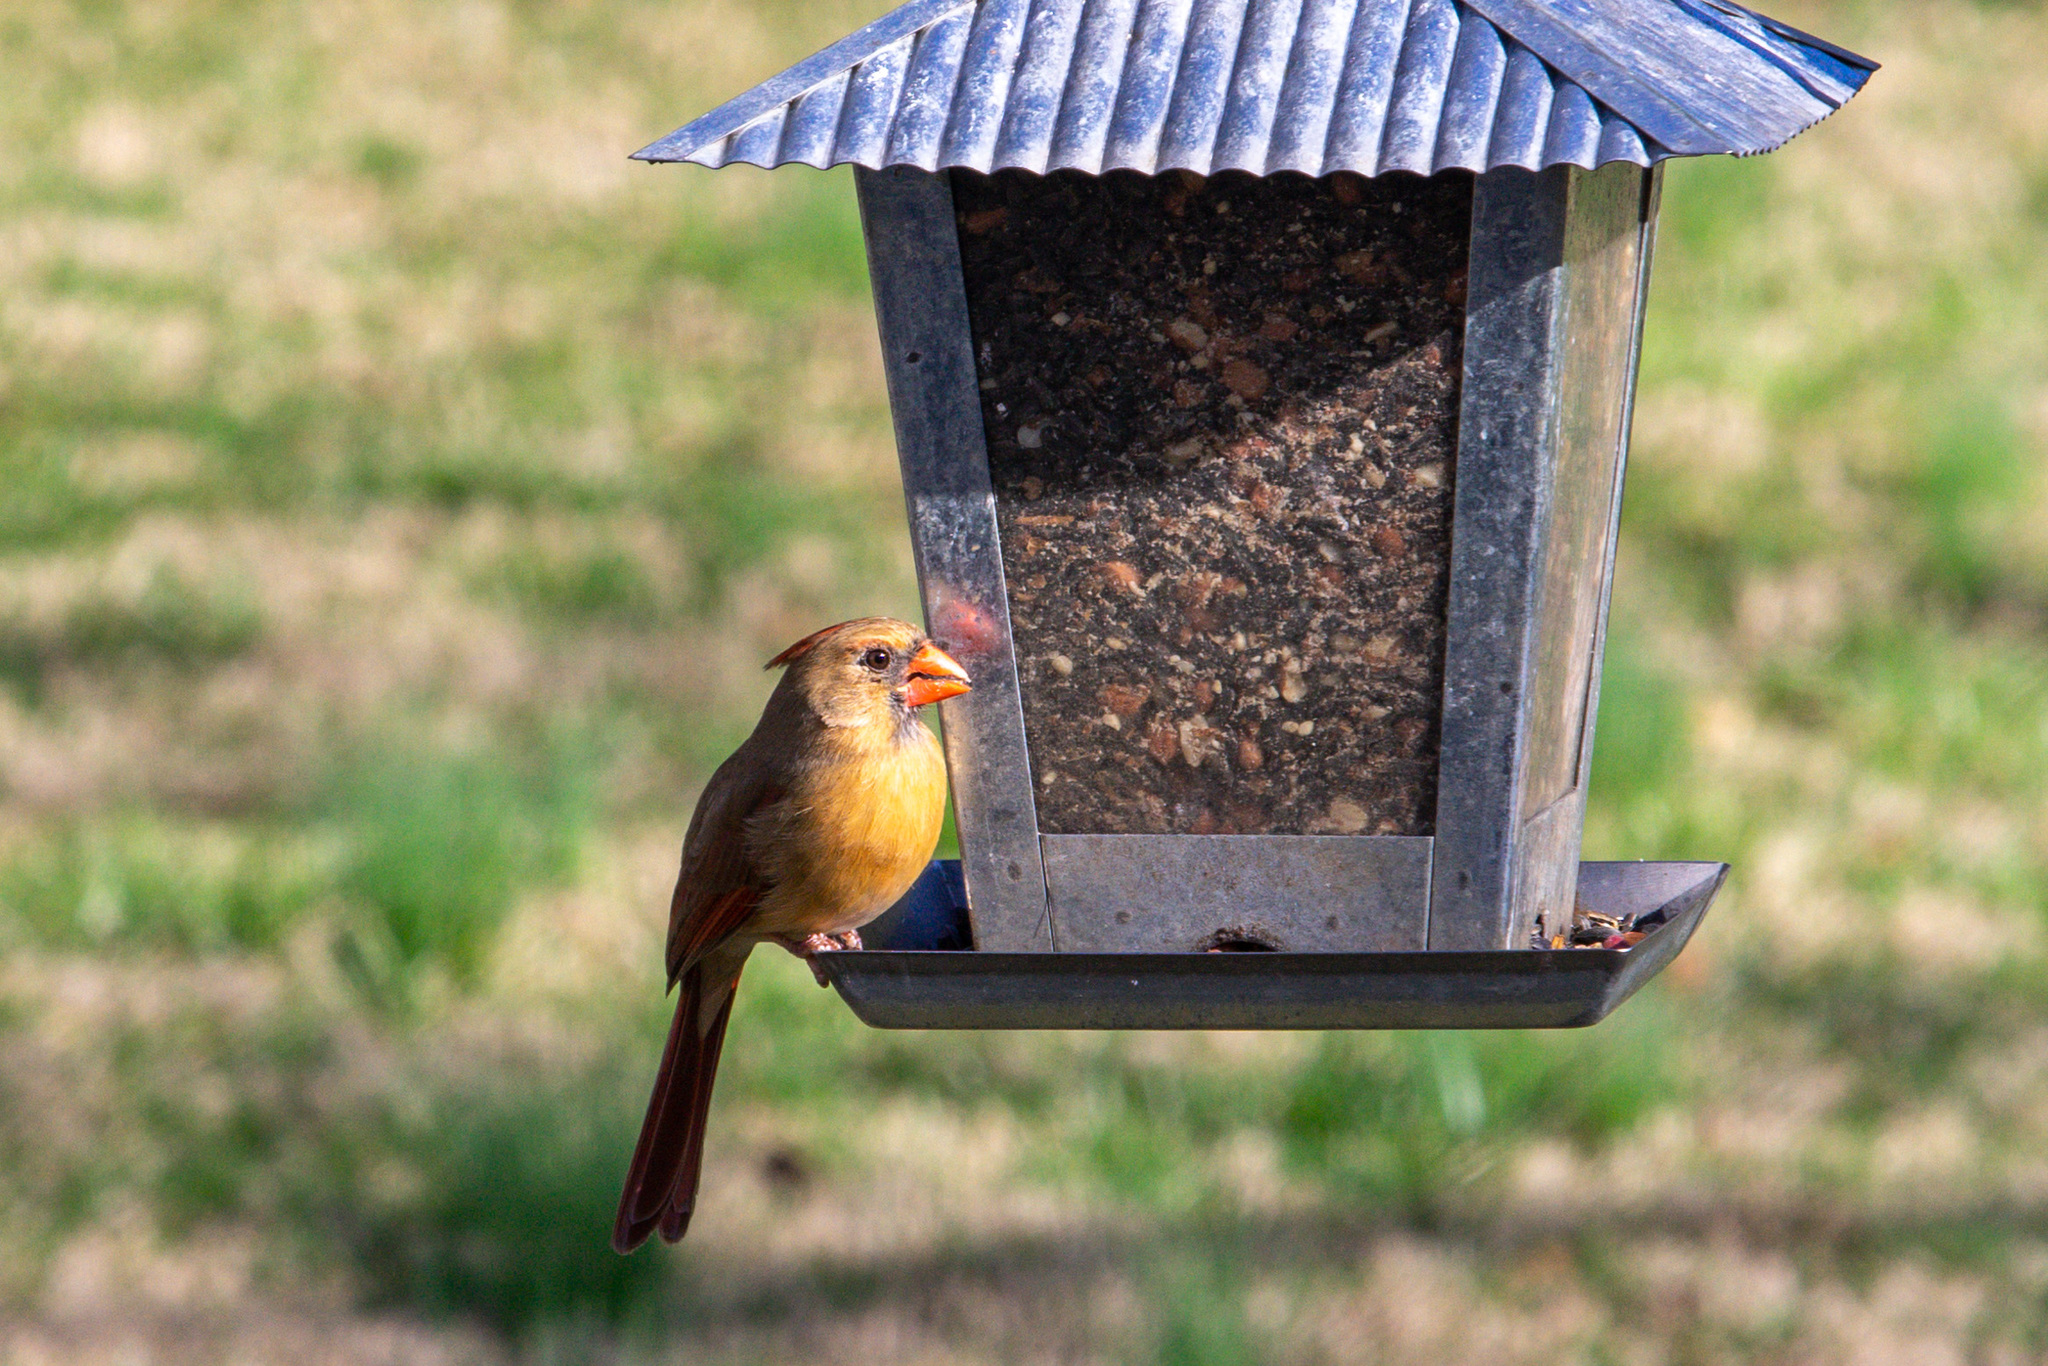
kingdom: Animalia
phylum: Chordata
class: Aves
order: Passeriformes
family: Cardinalidae
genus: Cardinalis
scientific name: Cardinalis cardinalis
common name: Northern cardinal
